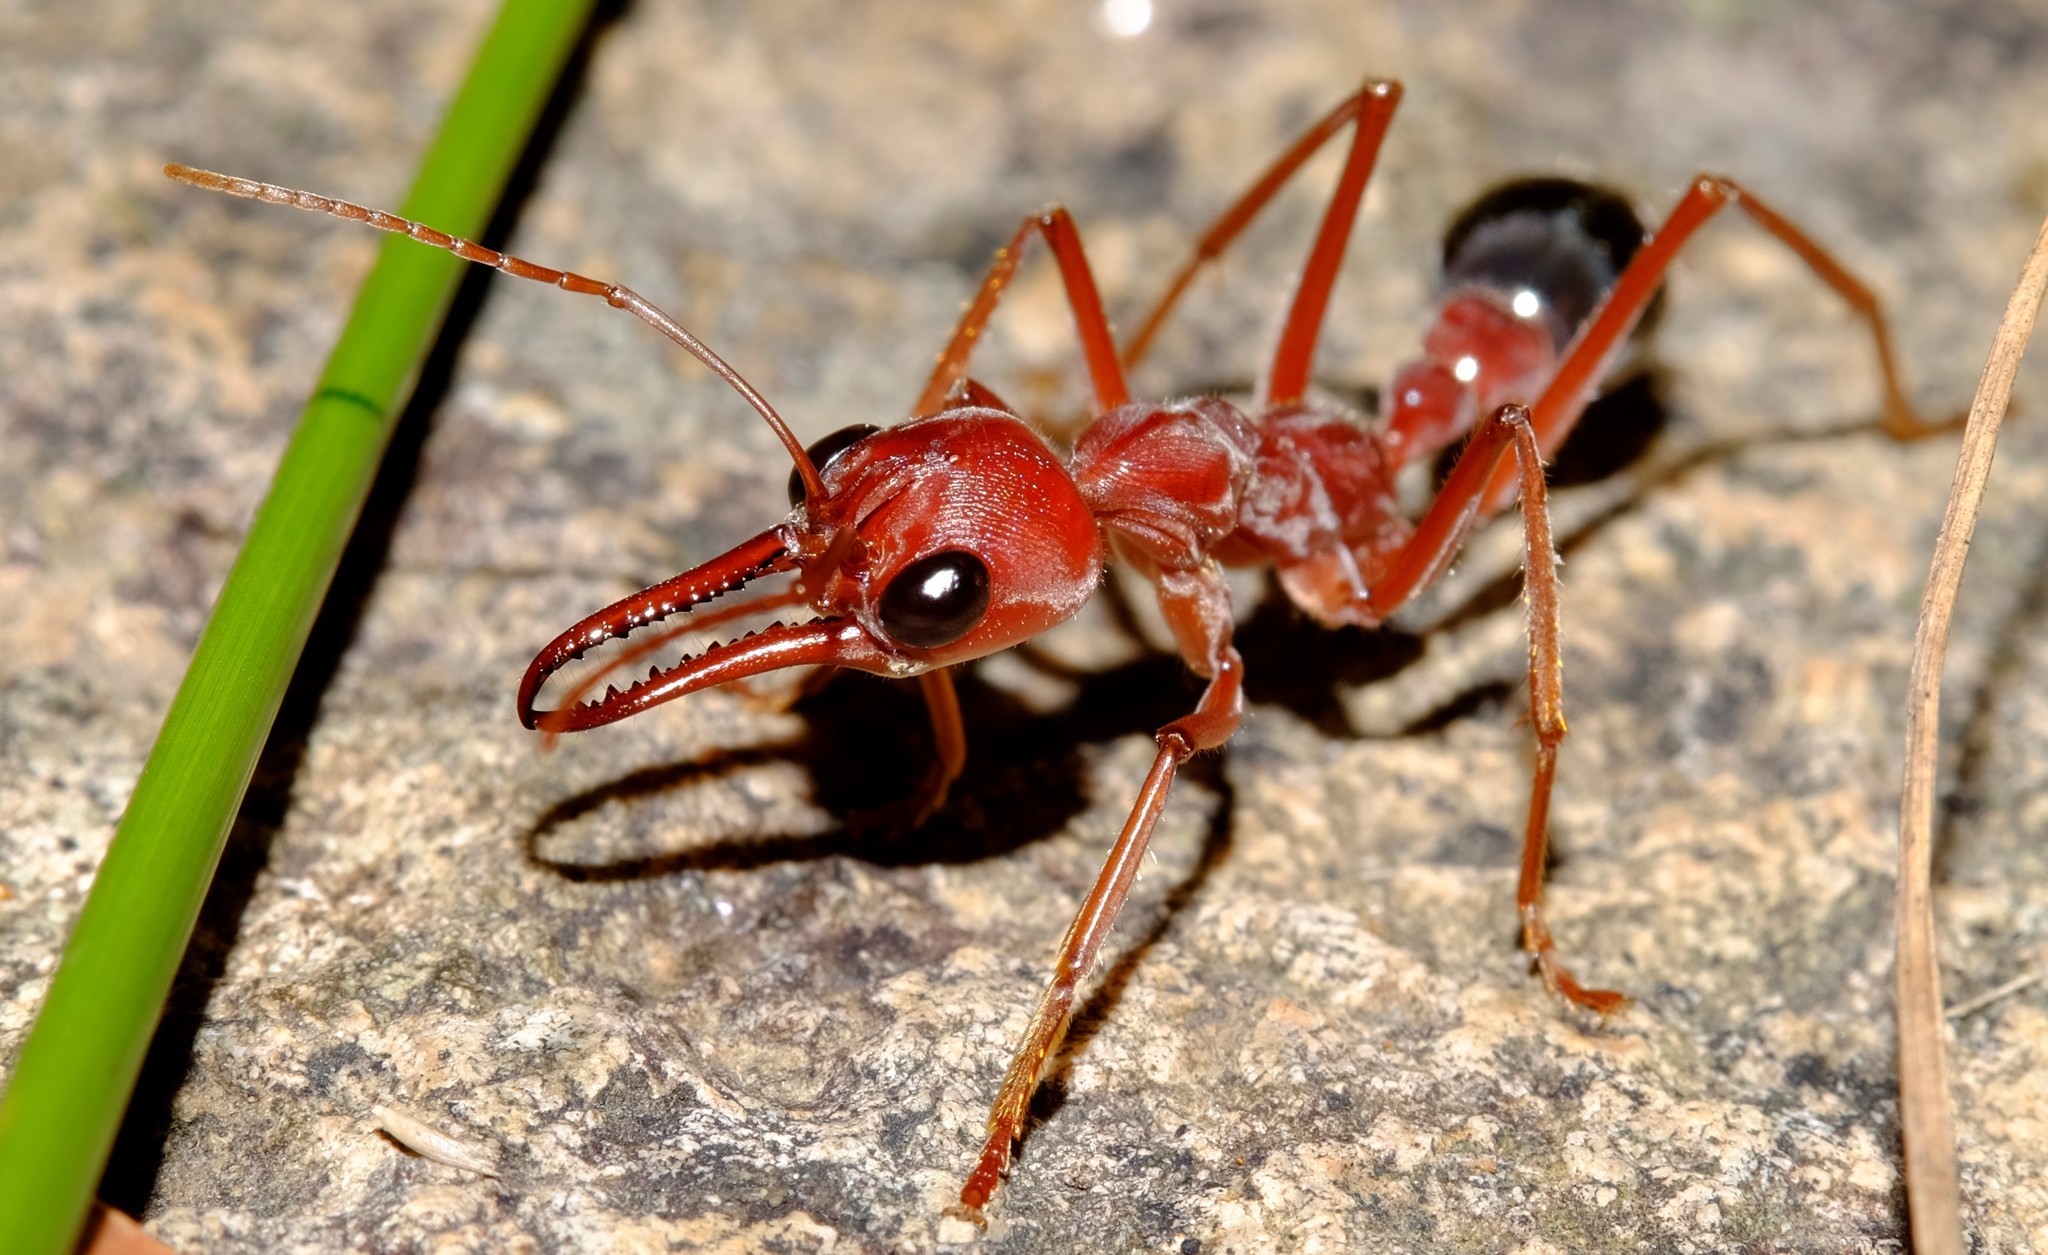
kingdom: Animalia
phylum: Arthropoda
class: Insecta
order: Hymenoptera
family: Formicidae
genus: Myrmecia
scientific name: Myrmecia brevinoda
